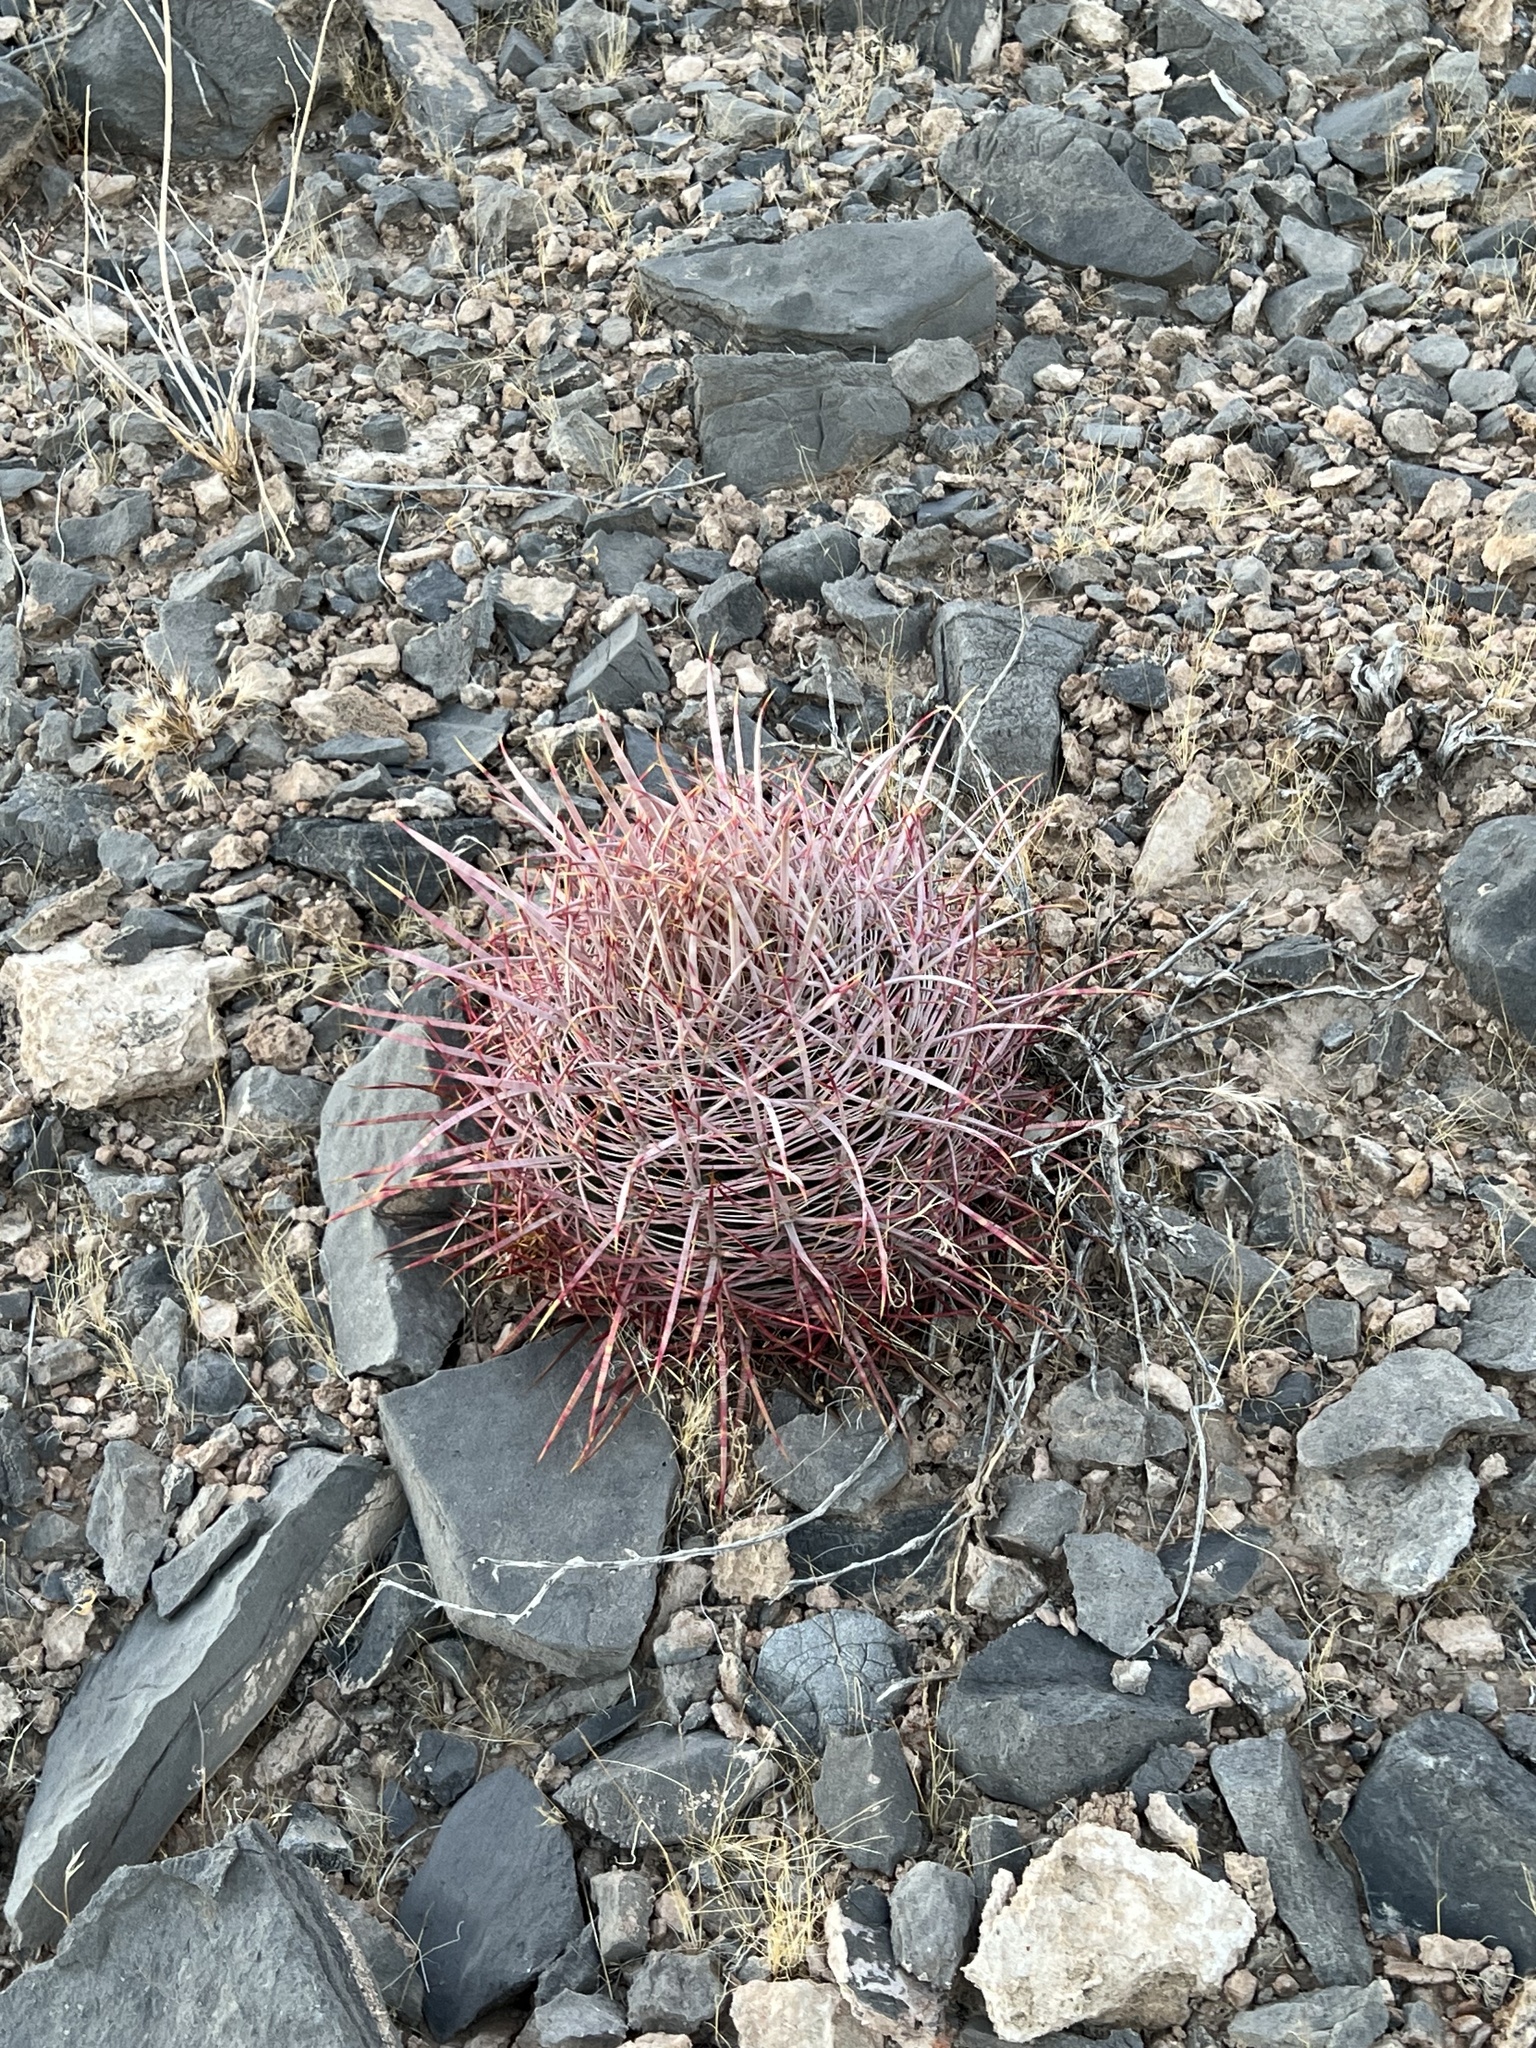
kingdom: Plantae
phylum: Tracheophyta
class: Magnoliopsida
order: Caryophyllales
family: Cactaceae
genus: Ferocactus
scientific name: Ferocactus cylindraceus
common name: California barrel cactus
